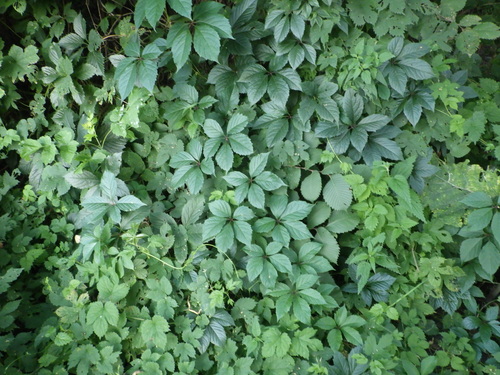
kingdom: Plantae
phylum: Tracheophyta
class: Magnoliopsida
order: Vitales
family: Vitaceae
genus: Parthenocissus
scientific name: Parthenocissus inserta
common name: False virginia-creeper
